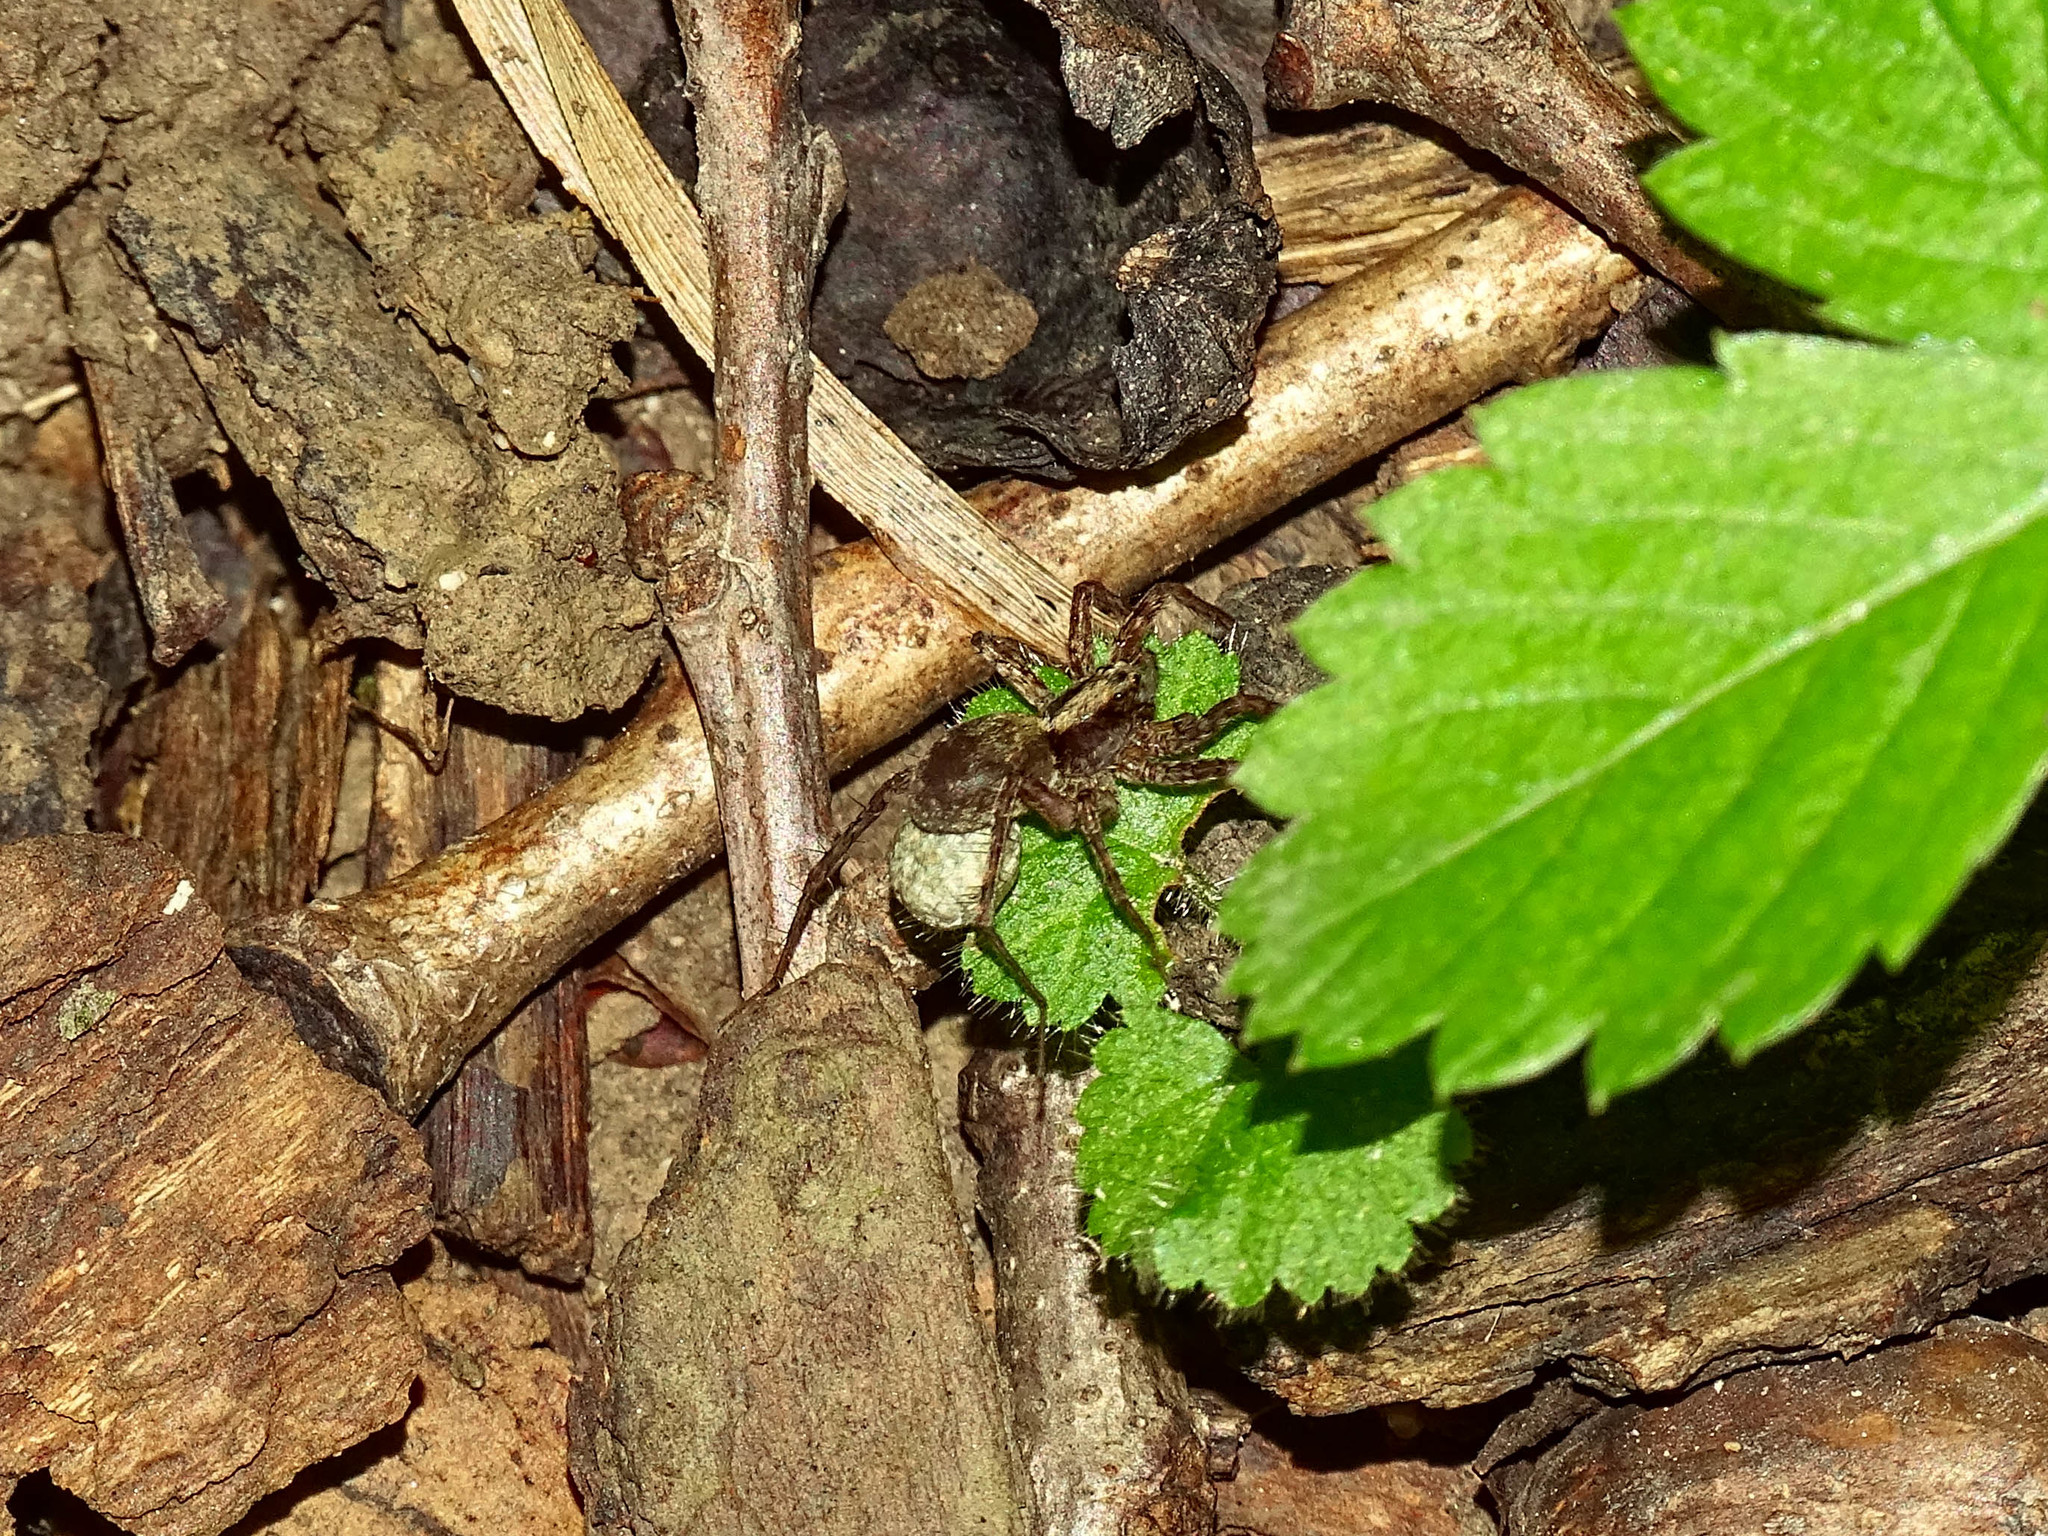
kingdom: Animalia
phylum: Arthropoda
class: Arachnida
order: Araneae
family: Lycosidae
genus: Pardosa
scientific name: Pardosa
